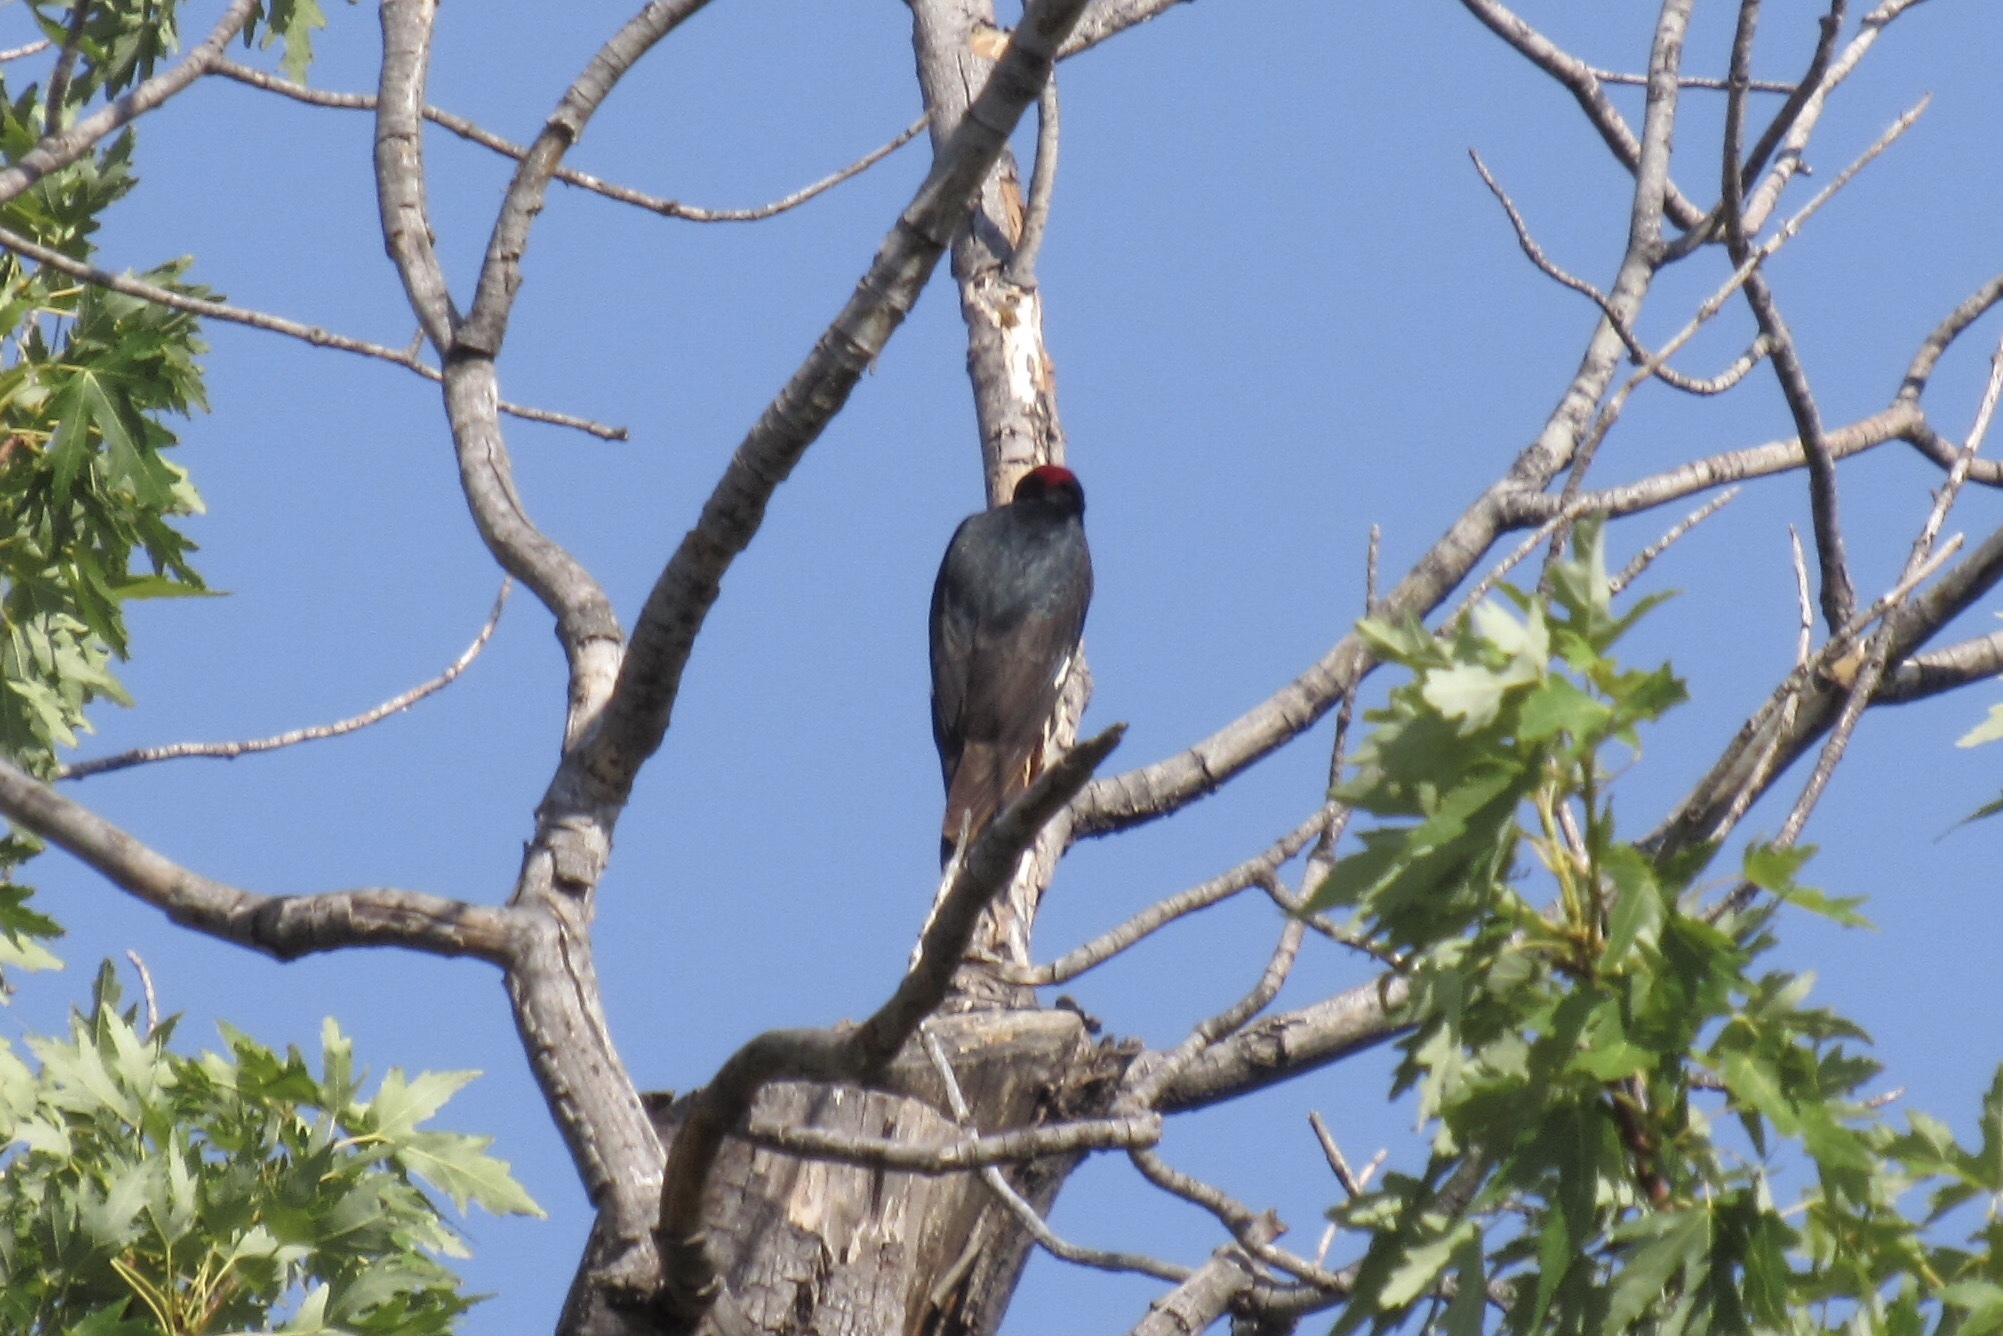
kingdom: Animalia
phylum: Chordata
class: Aves
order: Piciformes
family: Picidae
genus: Melanerpes
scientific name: Melanerpes formicivorus
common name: Acorn woodpecker
